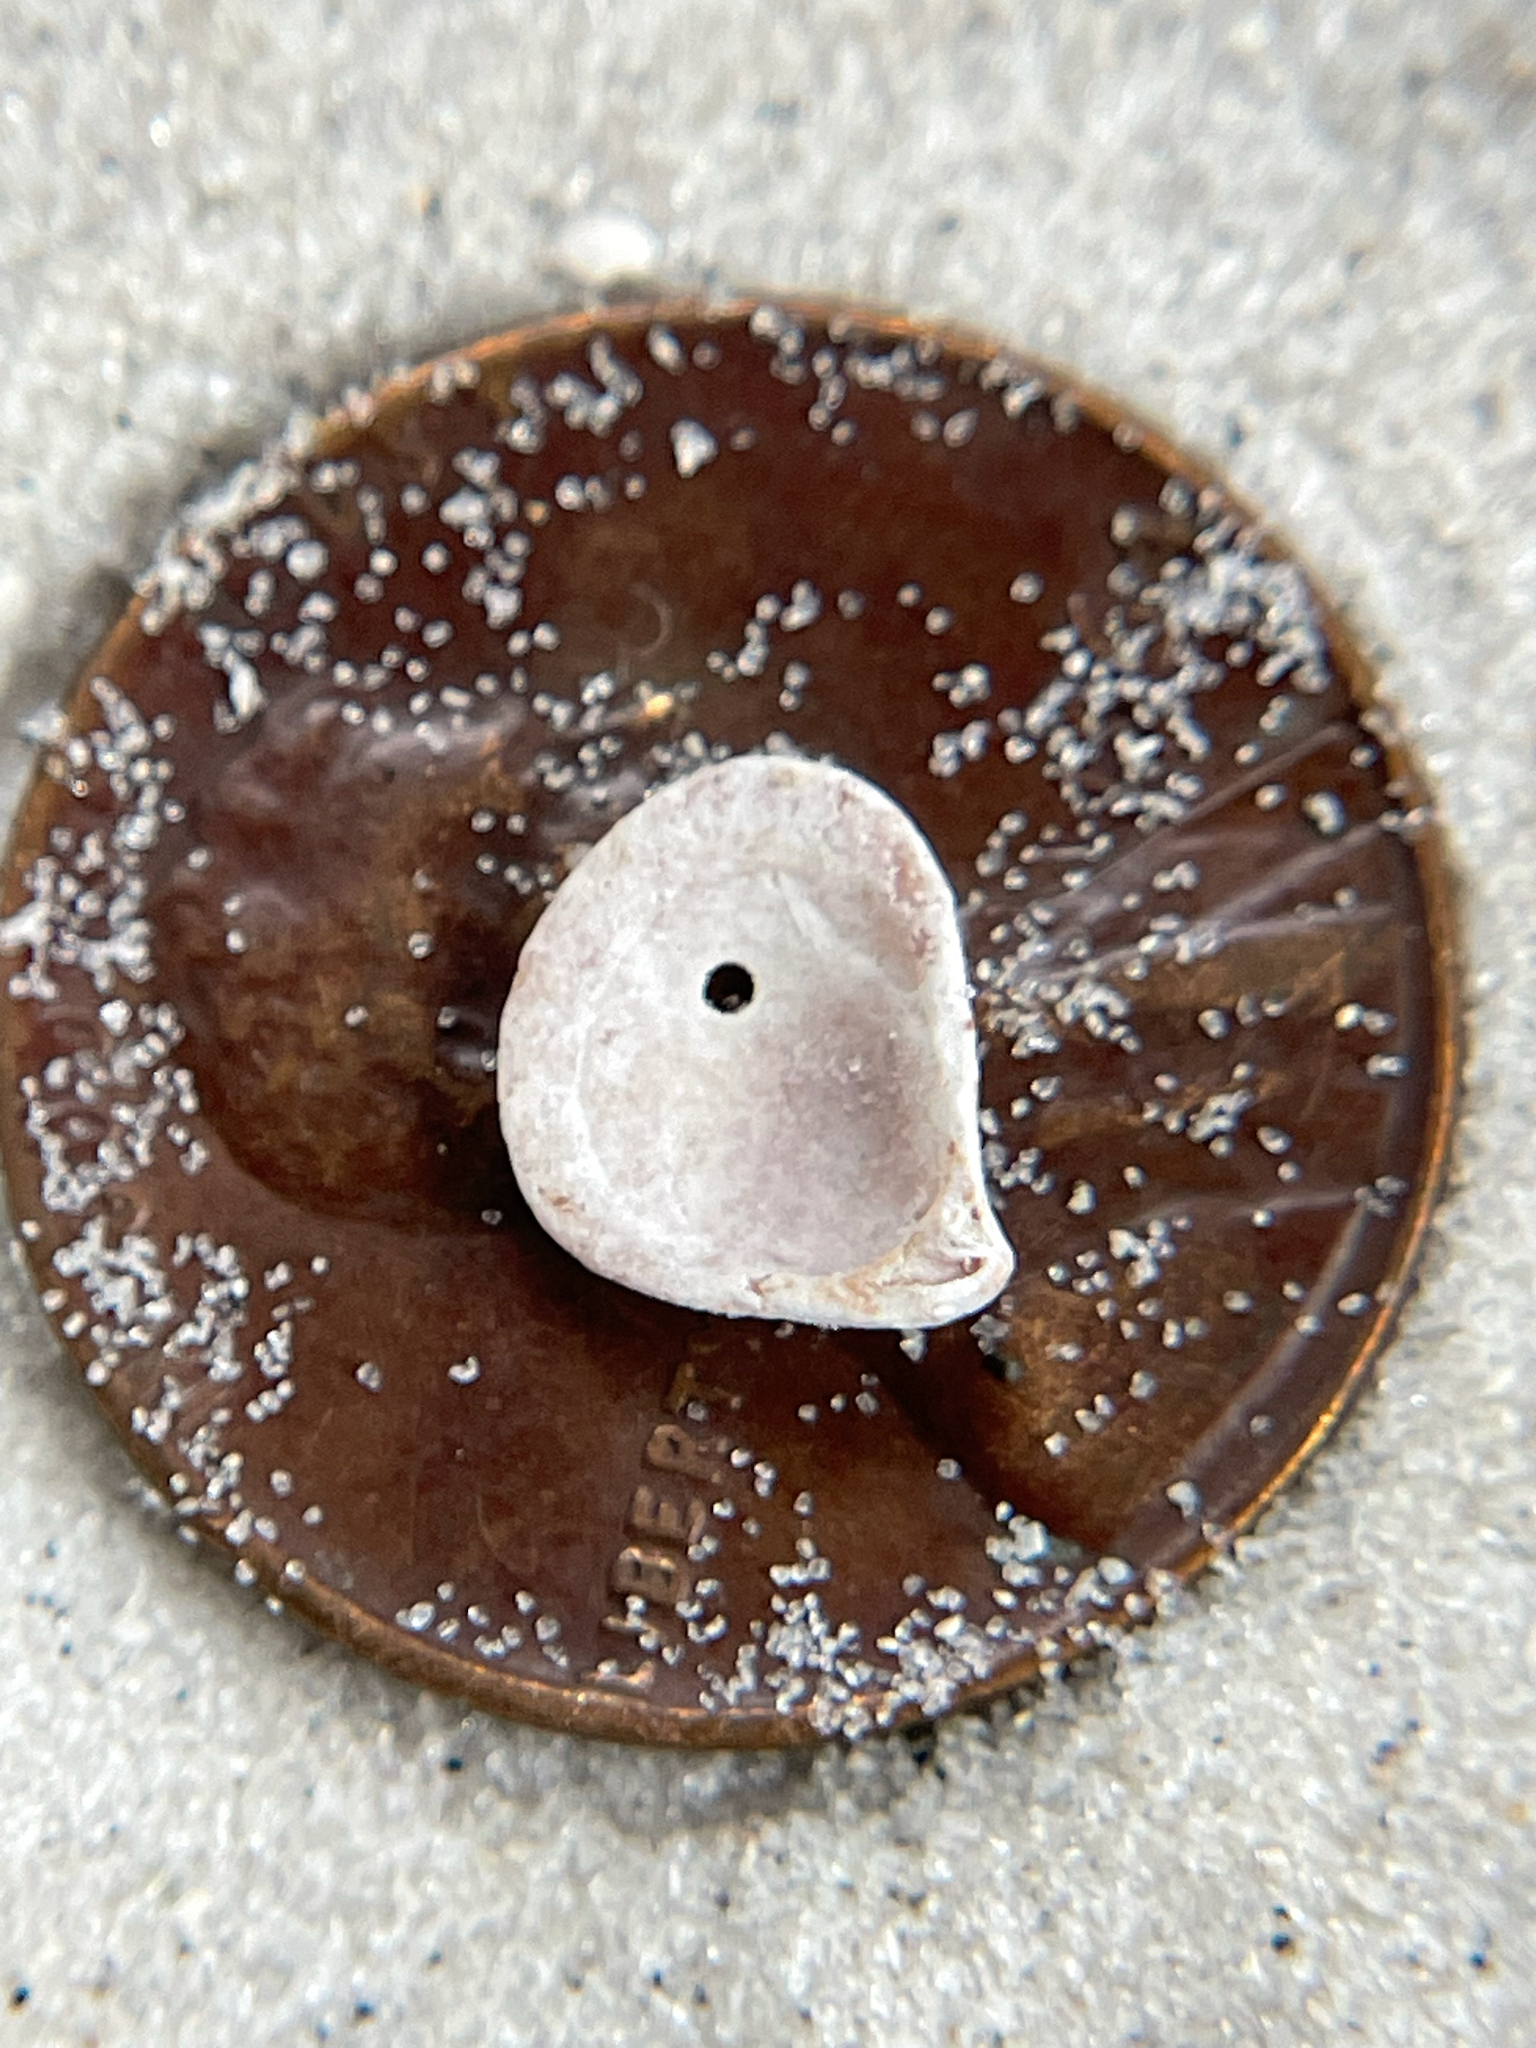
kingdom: Animalia
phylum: Mollusca
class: Bivalvia
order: Carditida
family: Carditidae
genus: Pteromeris
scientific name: Pteromeris perplana
